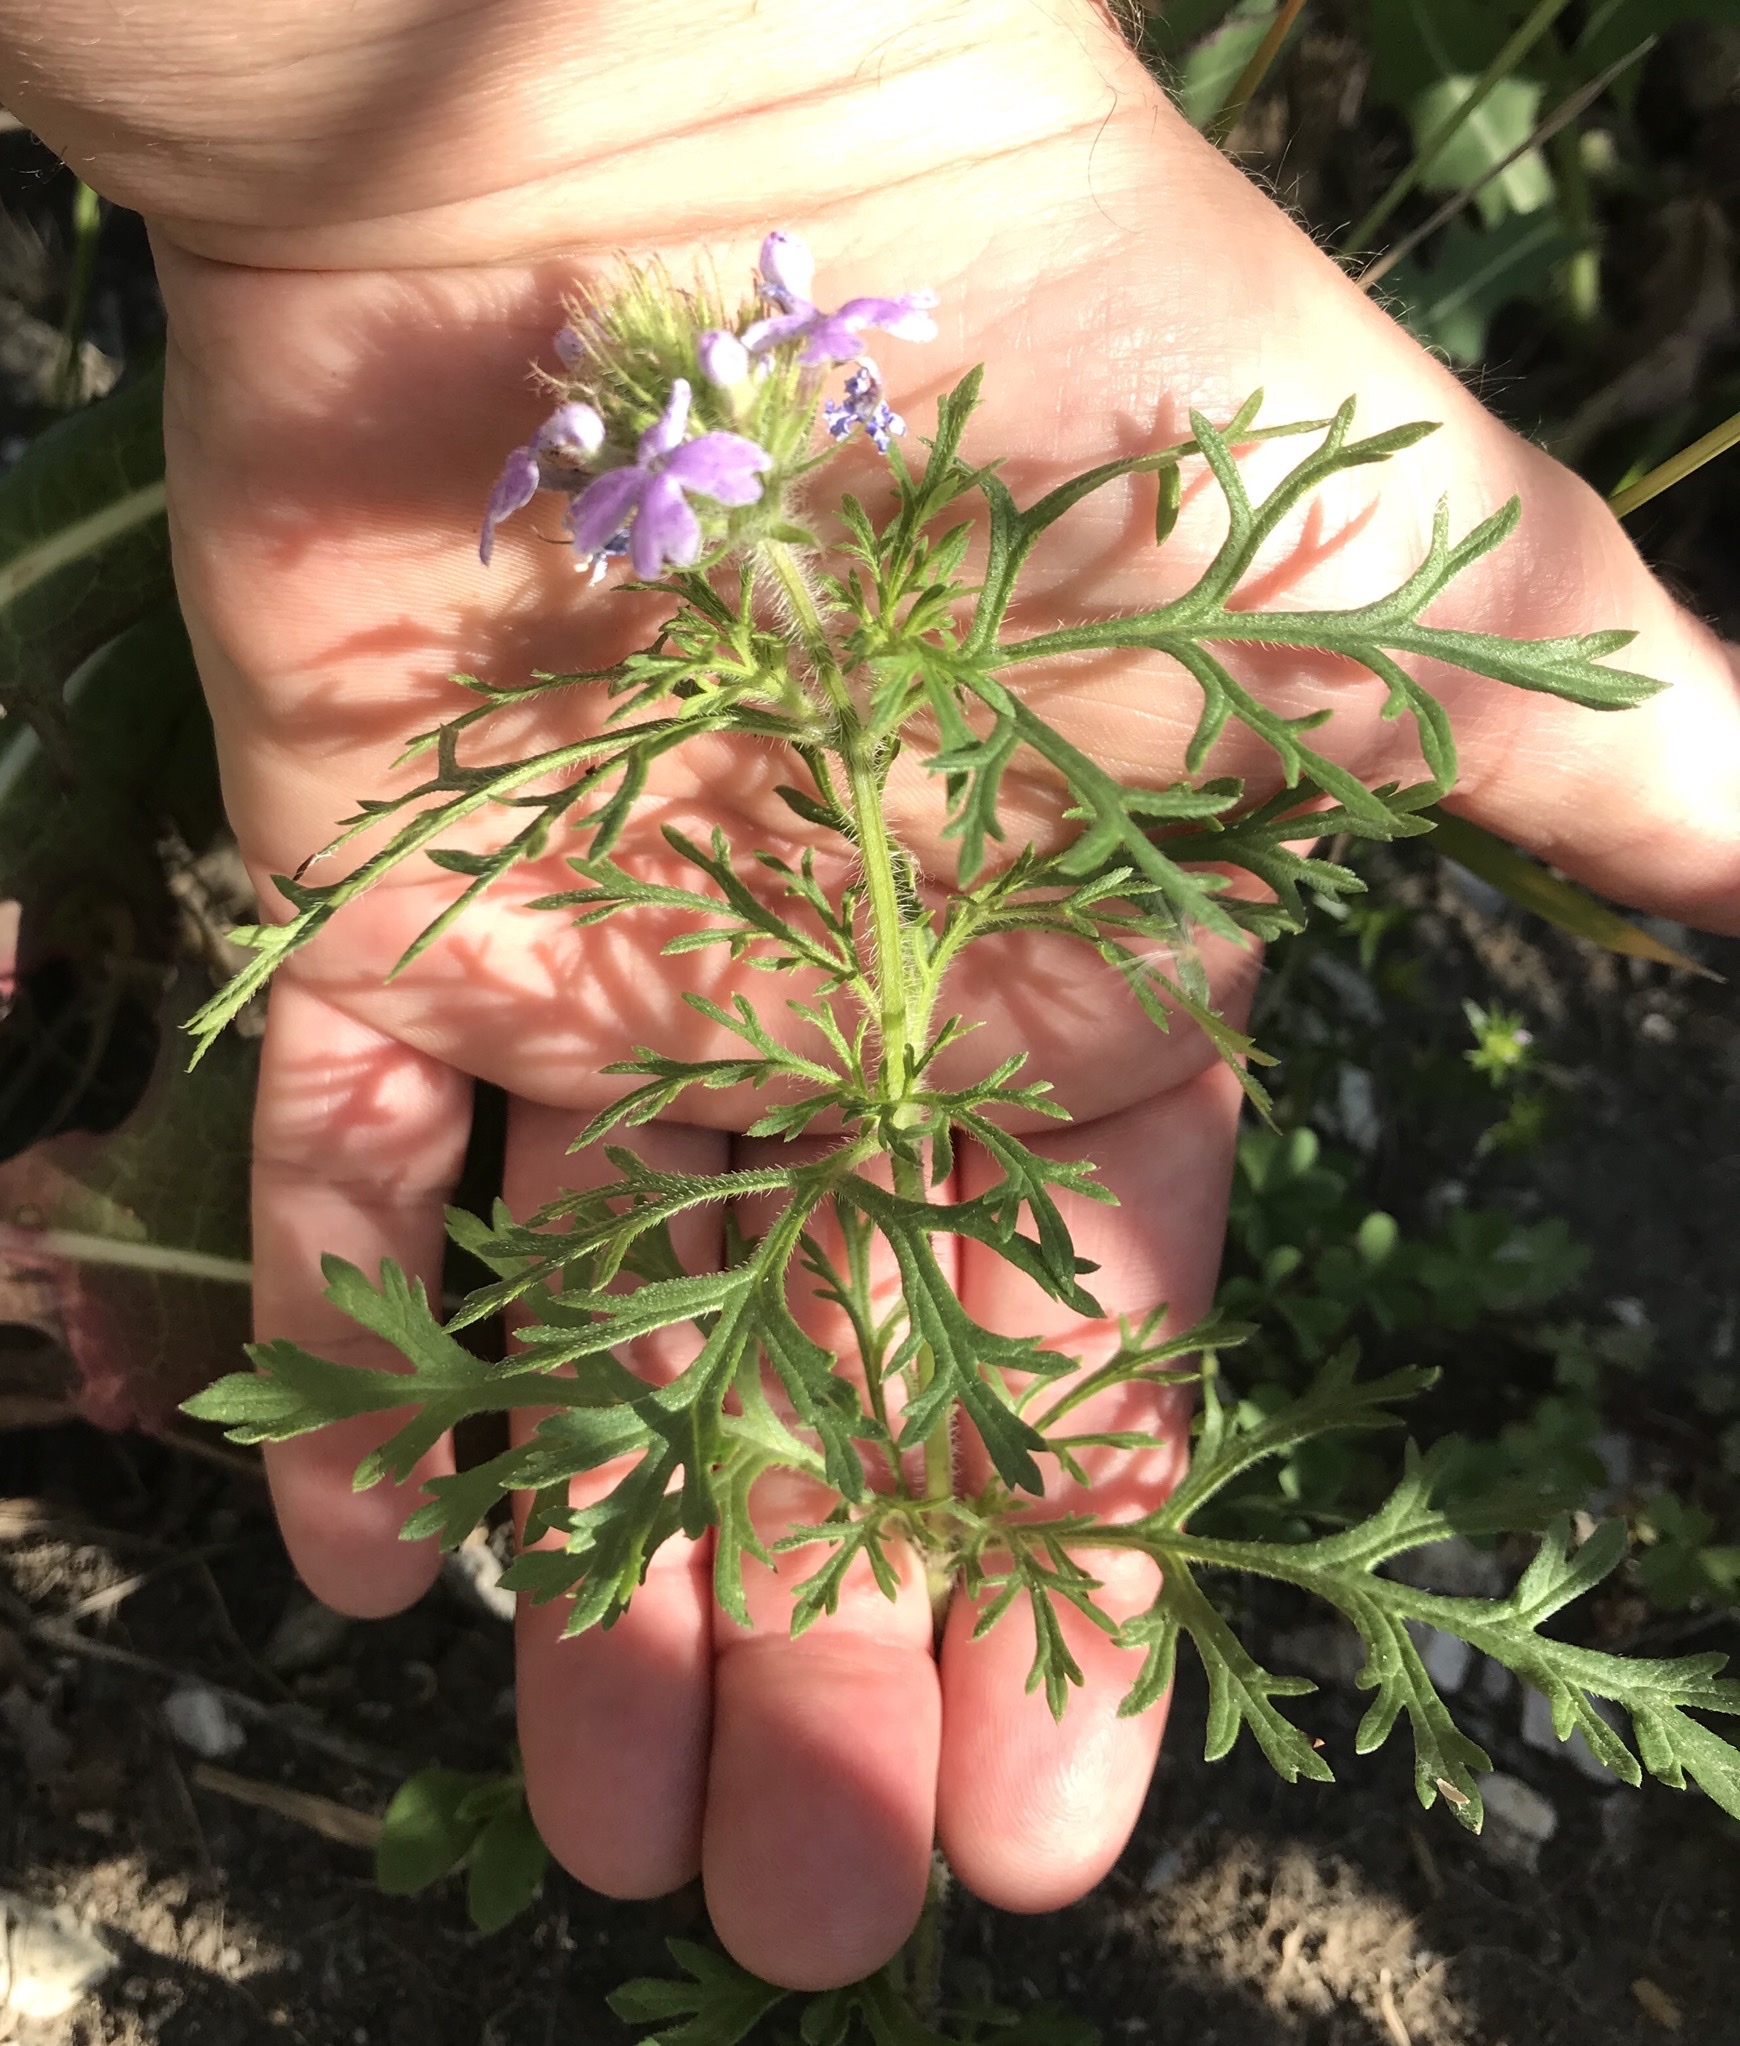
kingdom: Plantae
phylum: Tracheophyta
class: Magnoliopsida
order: Lamiales
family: Verbenaceae
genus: Verbena
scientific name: Verbena bipinnatifida
